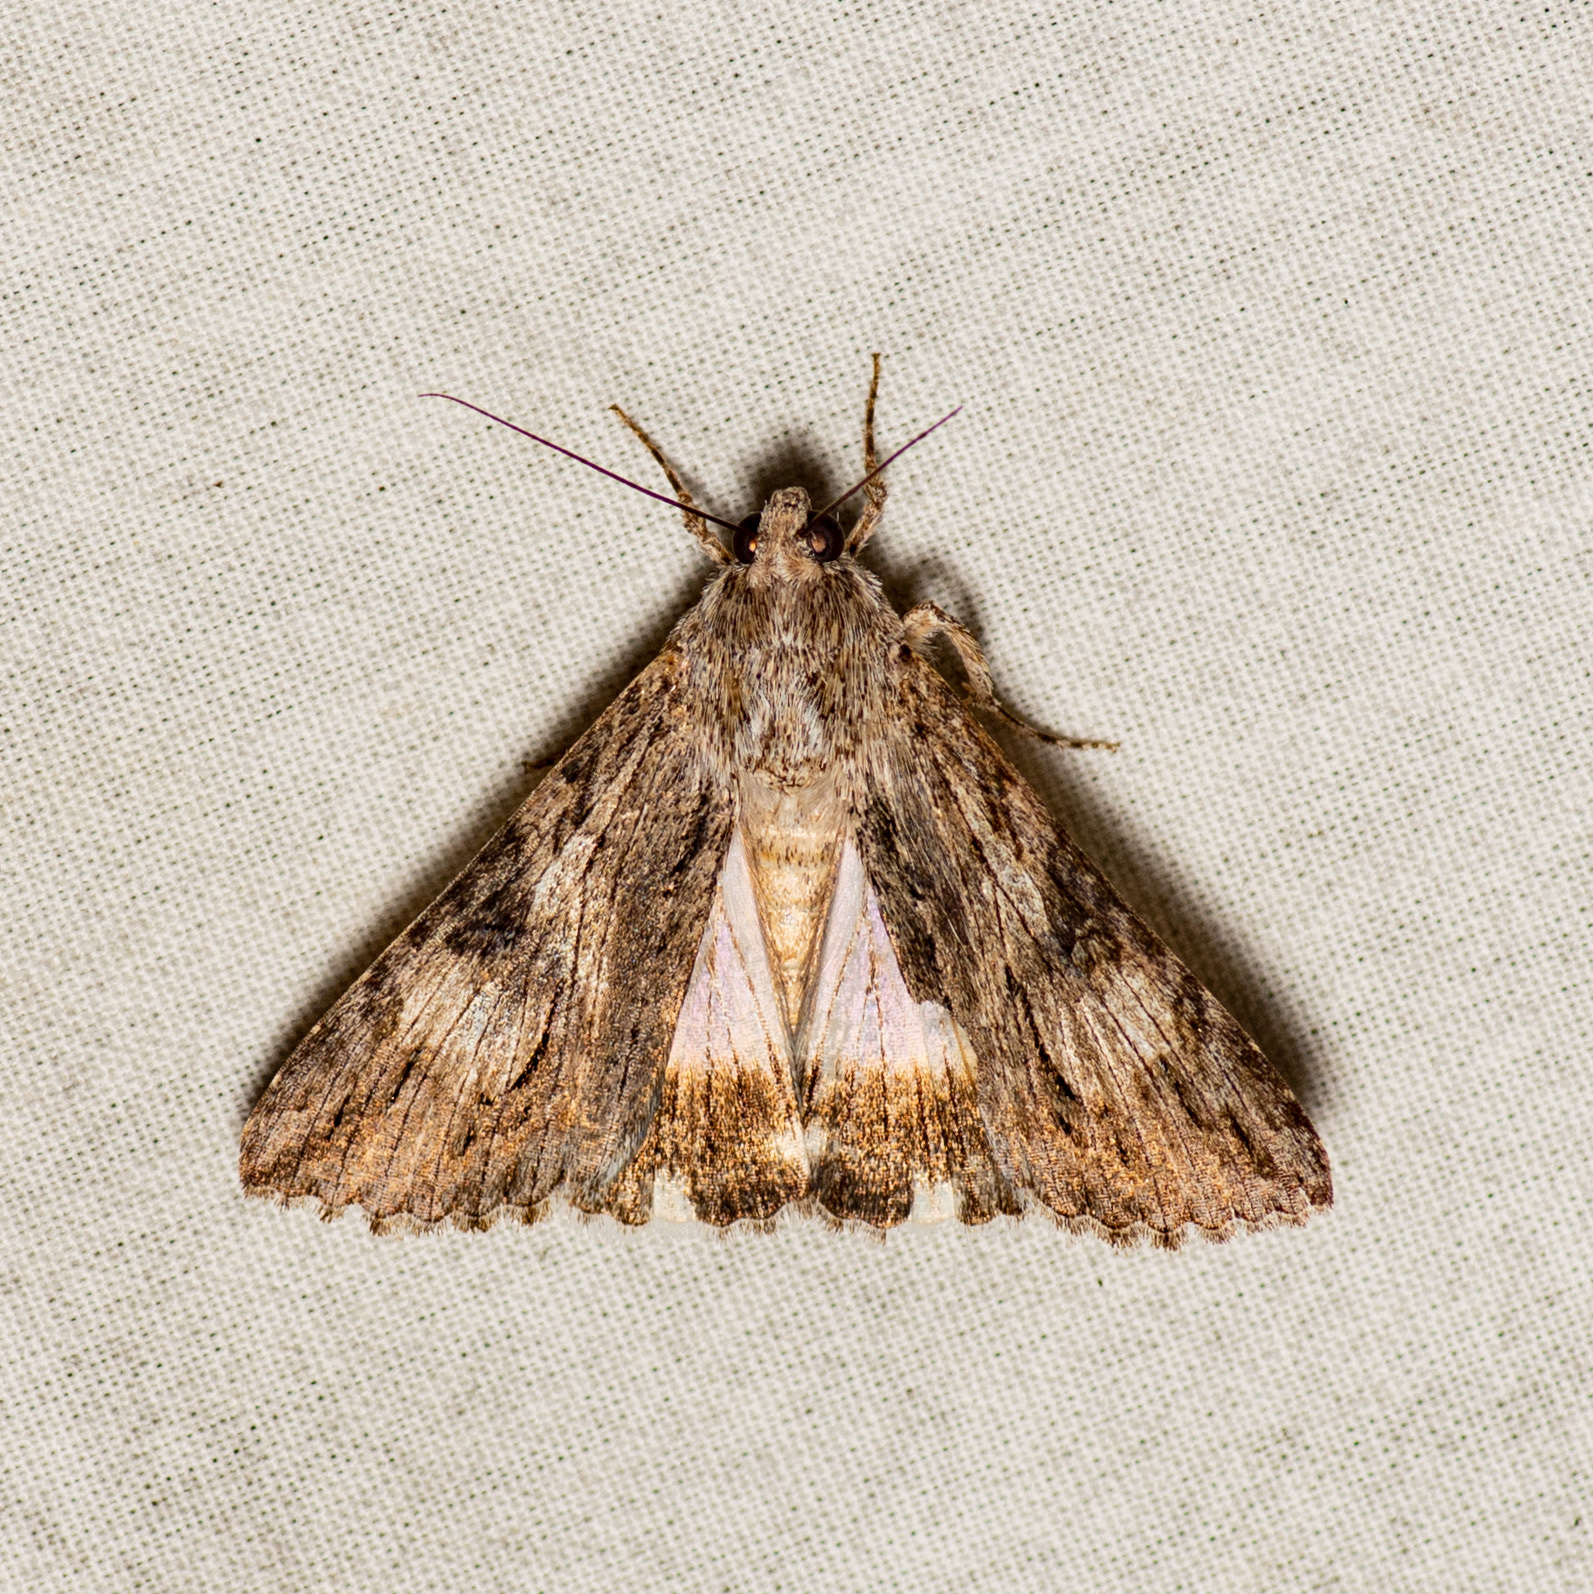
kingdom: Animalia
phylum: Arthropoda
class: Insecta
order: Lepidoptera
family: Erebidae
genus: Melipotis
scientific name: Melipotis jucunda
